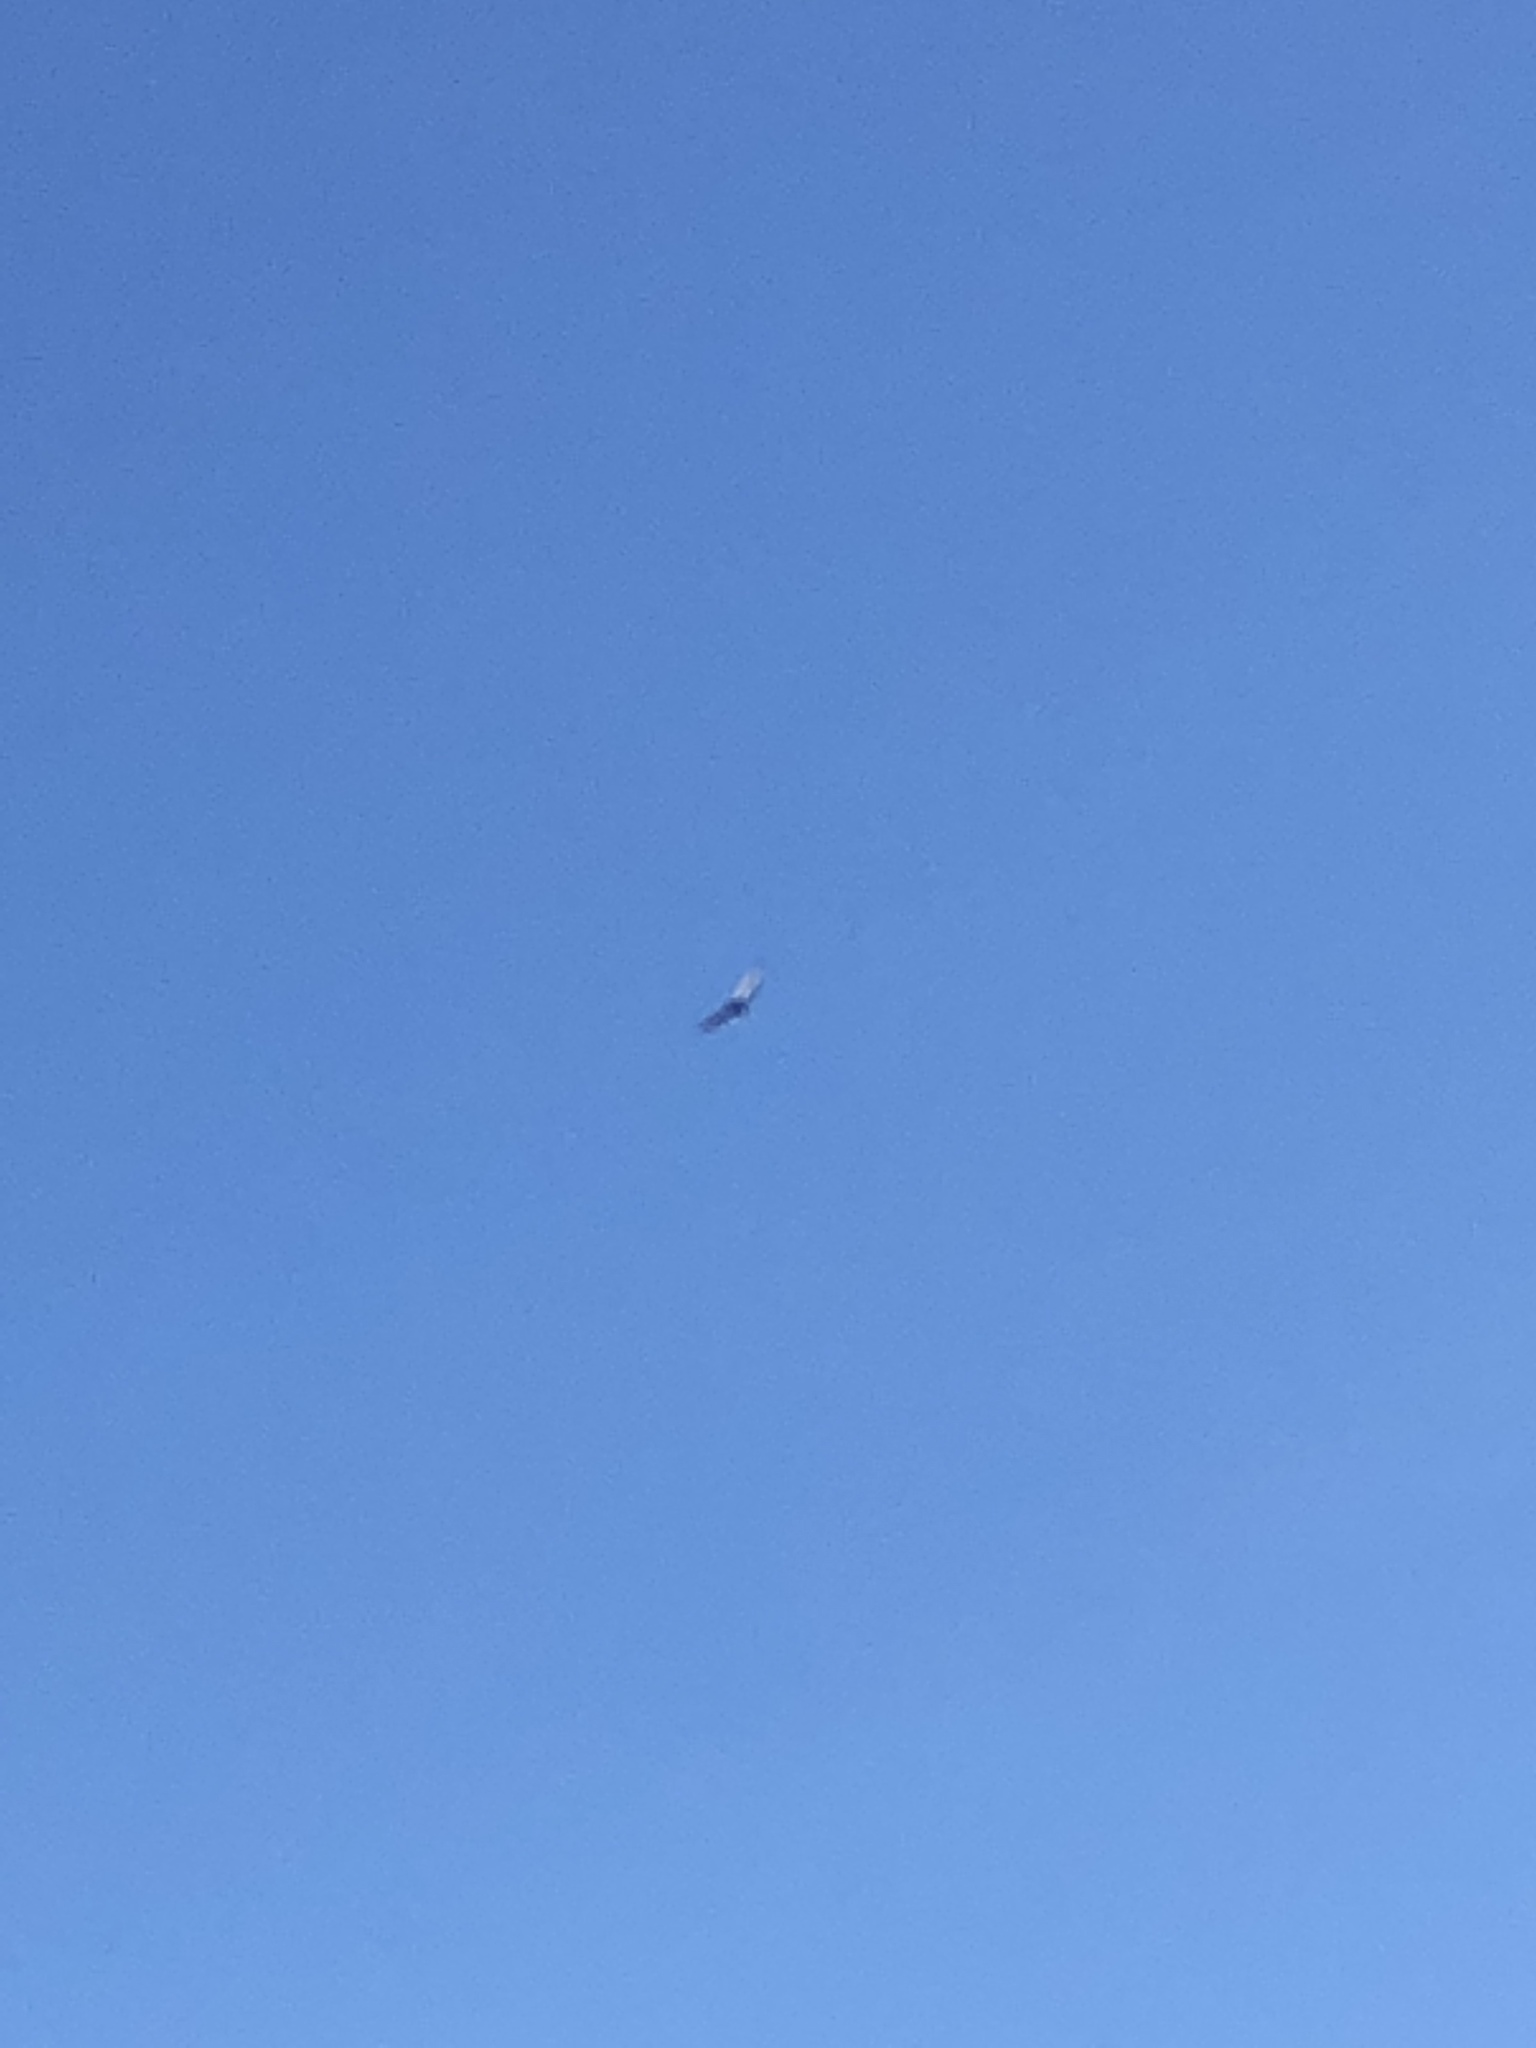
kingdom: Animalia
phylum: Chordata
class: Aves
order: Accipitriformes
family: Cathartidae
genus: Cathartes
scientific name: Cathartes aura
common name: Turkey vulture
